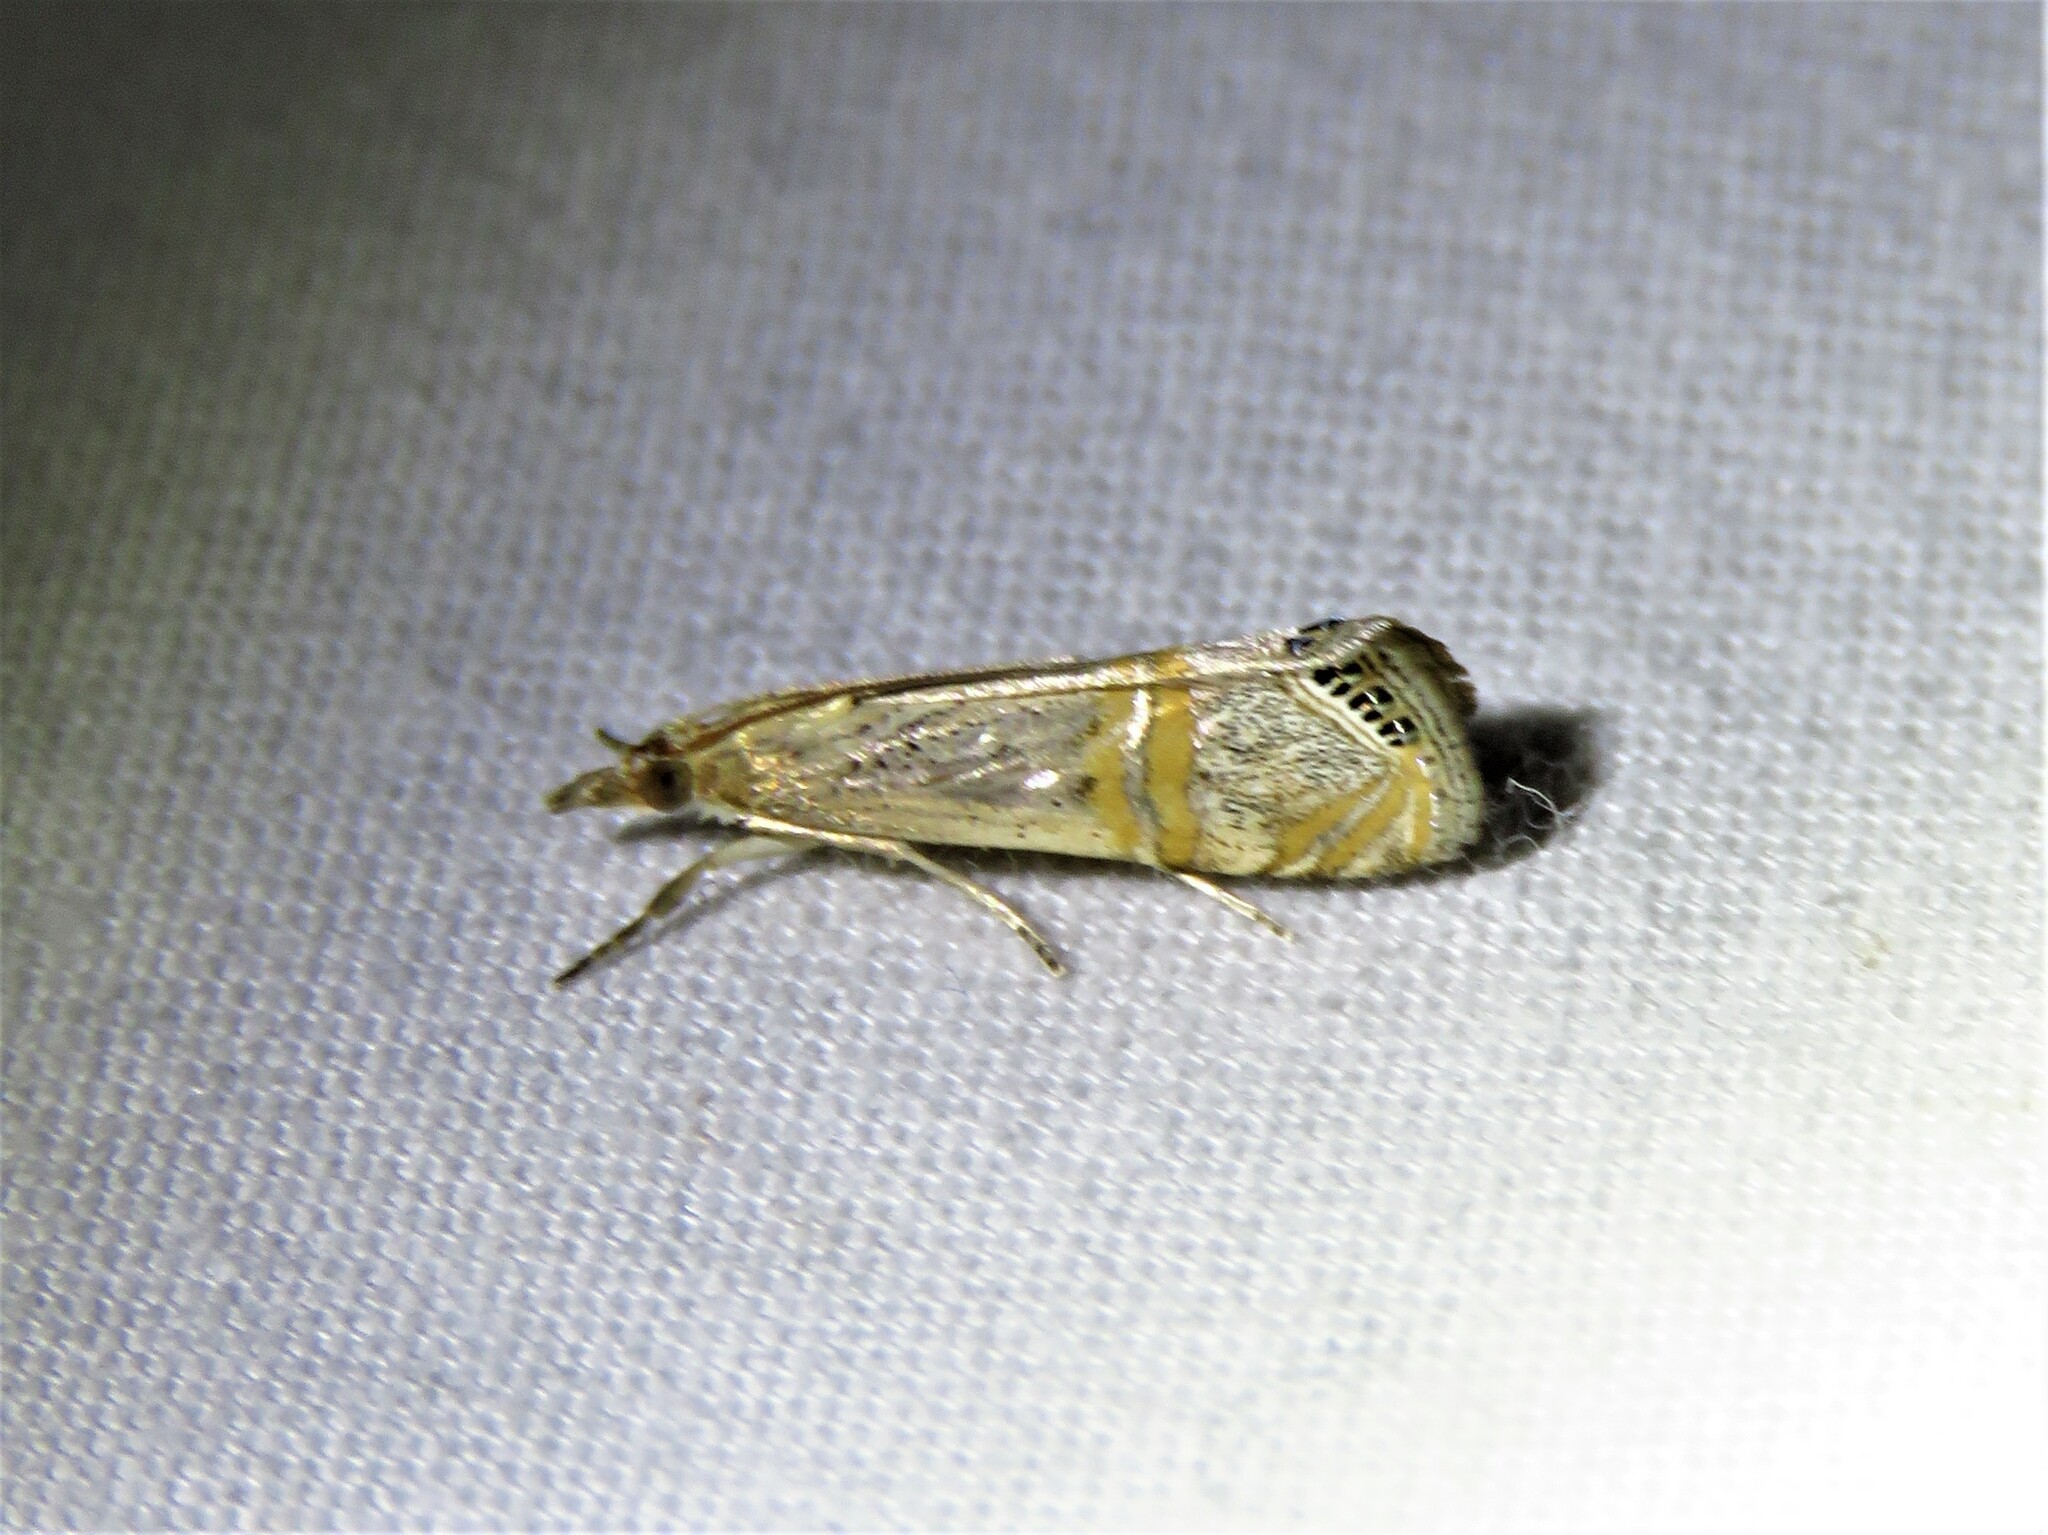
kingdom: Animalia
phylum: Arthropoda
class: Insecta
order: Lepidoptera
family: Crambidae
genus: Euchromius
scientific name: Euchromius ocellea
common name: Necklace veneer moth
